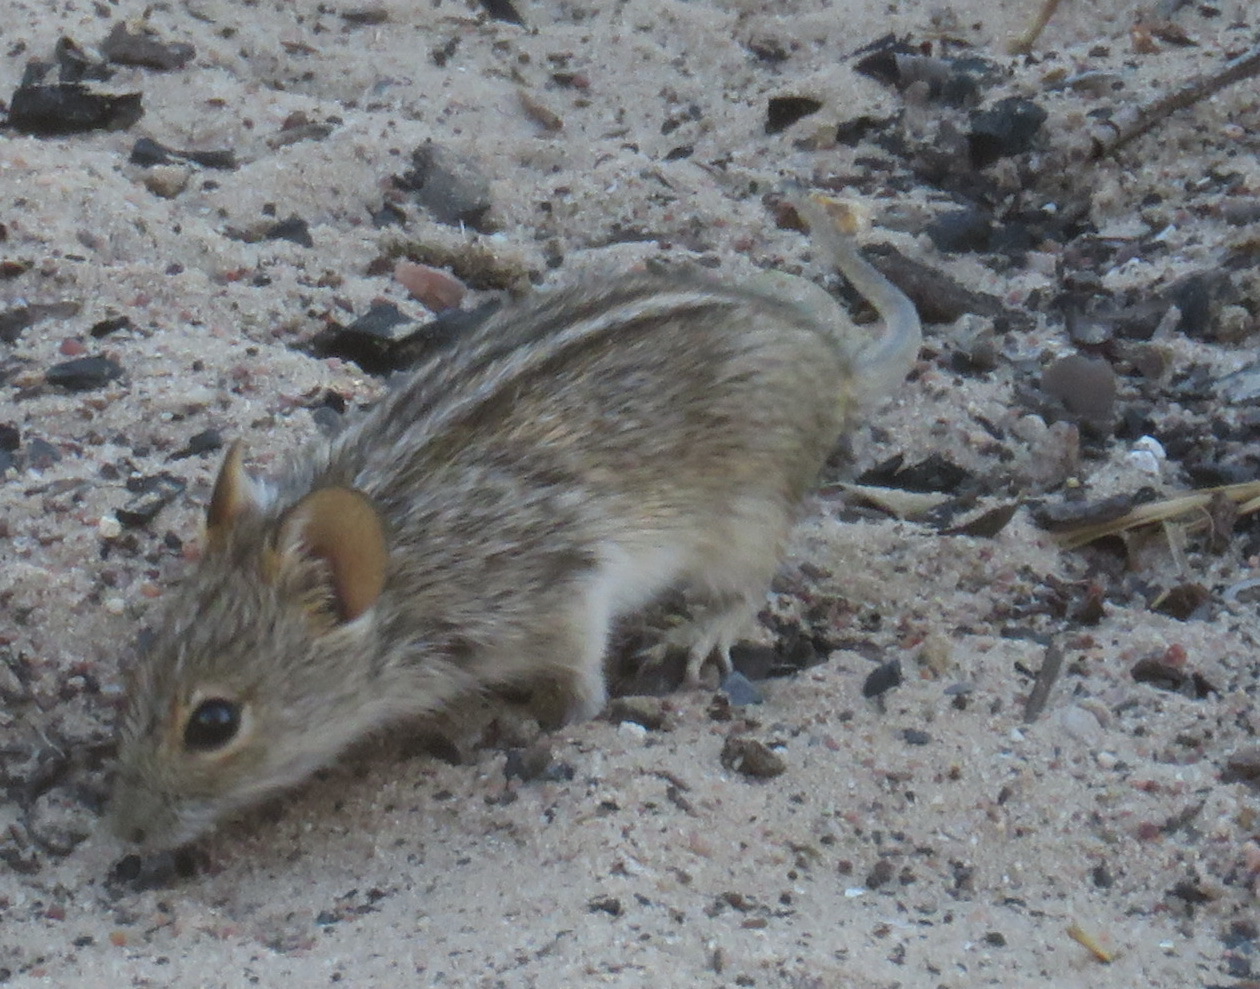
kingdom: Animalia
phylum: Chordata
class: Mammalia
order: Rodentia
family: Muridae
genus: Rhabdomys
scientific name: Rhabdomys pumilio
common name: Xeric four-striped grass rat
